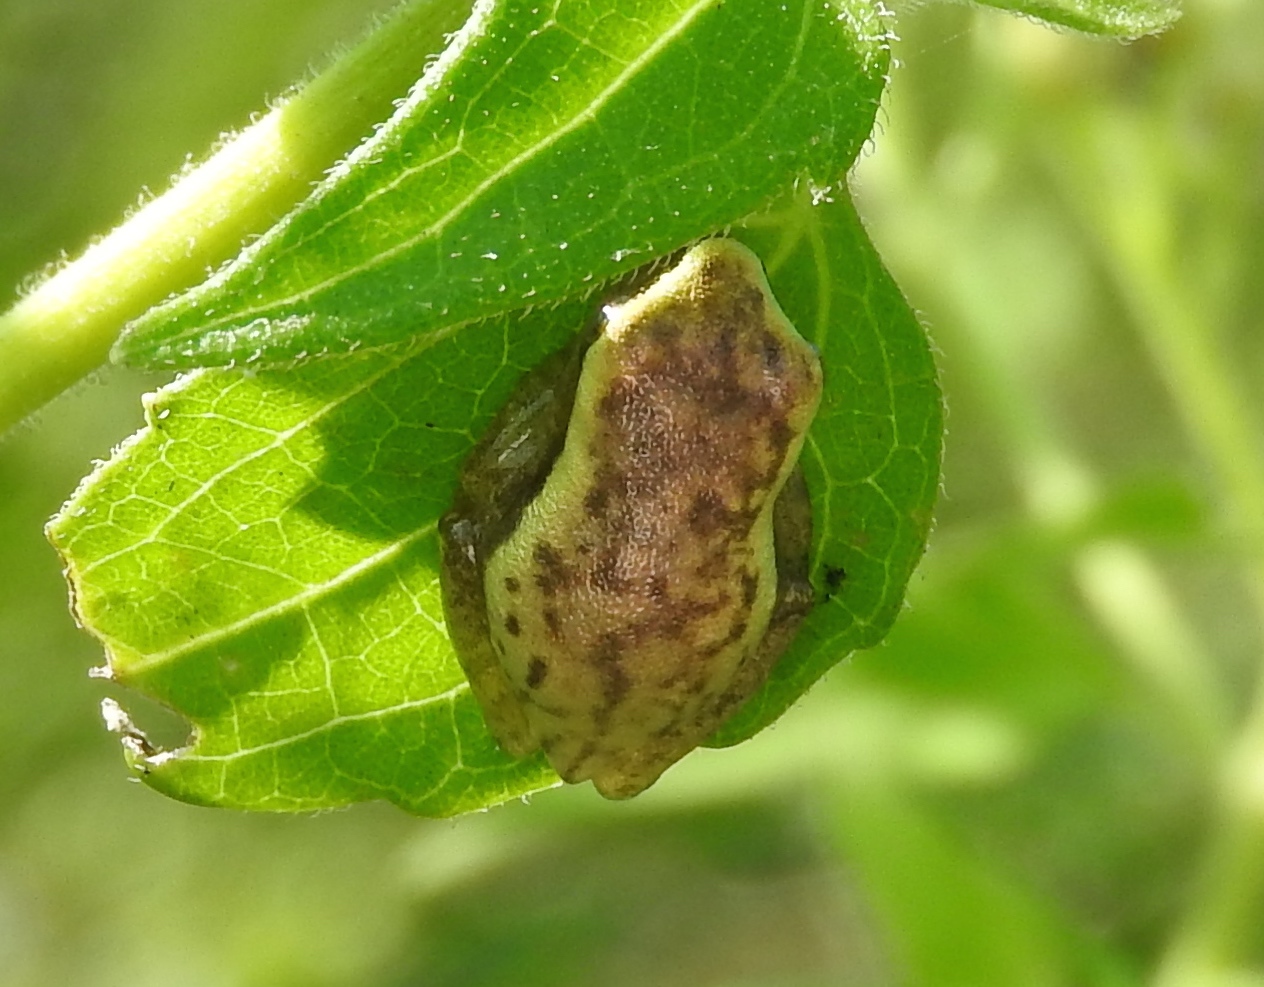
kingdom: Animalia
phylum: Chordata
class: Amphibia
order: Anura
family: Hylidae
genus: Tlalocohyla
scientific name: Tlalocohyla smithii
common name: Dwarf mexican treefrog
